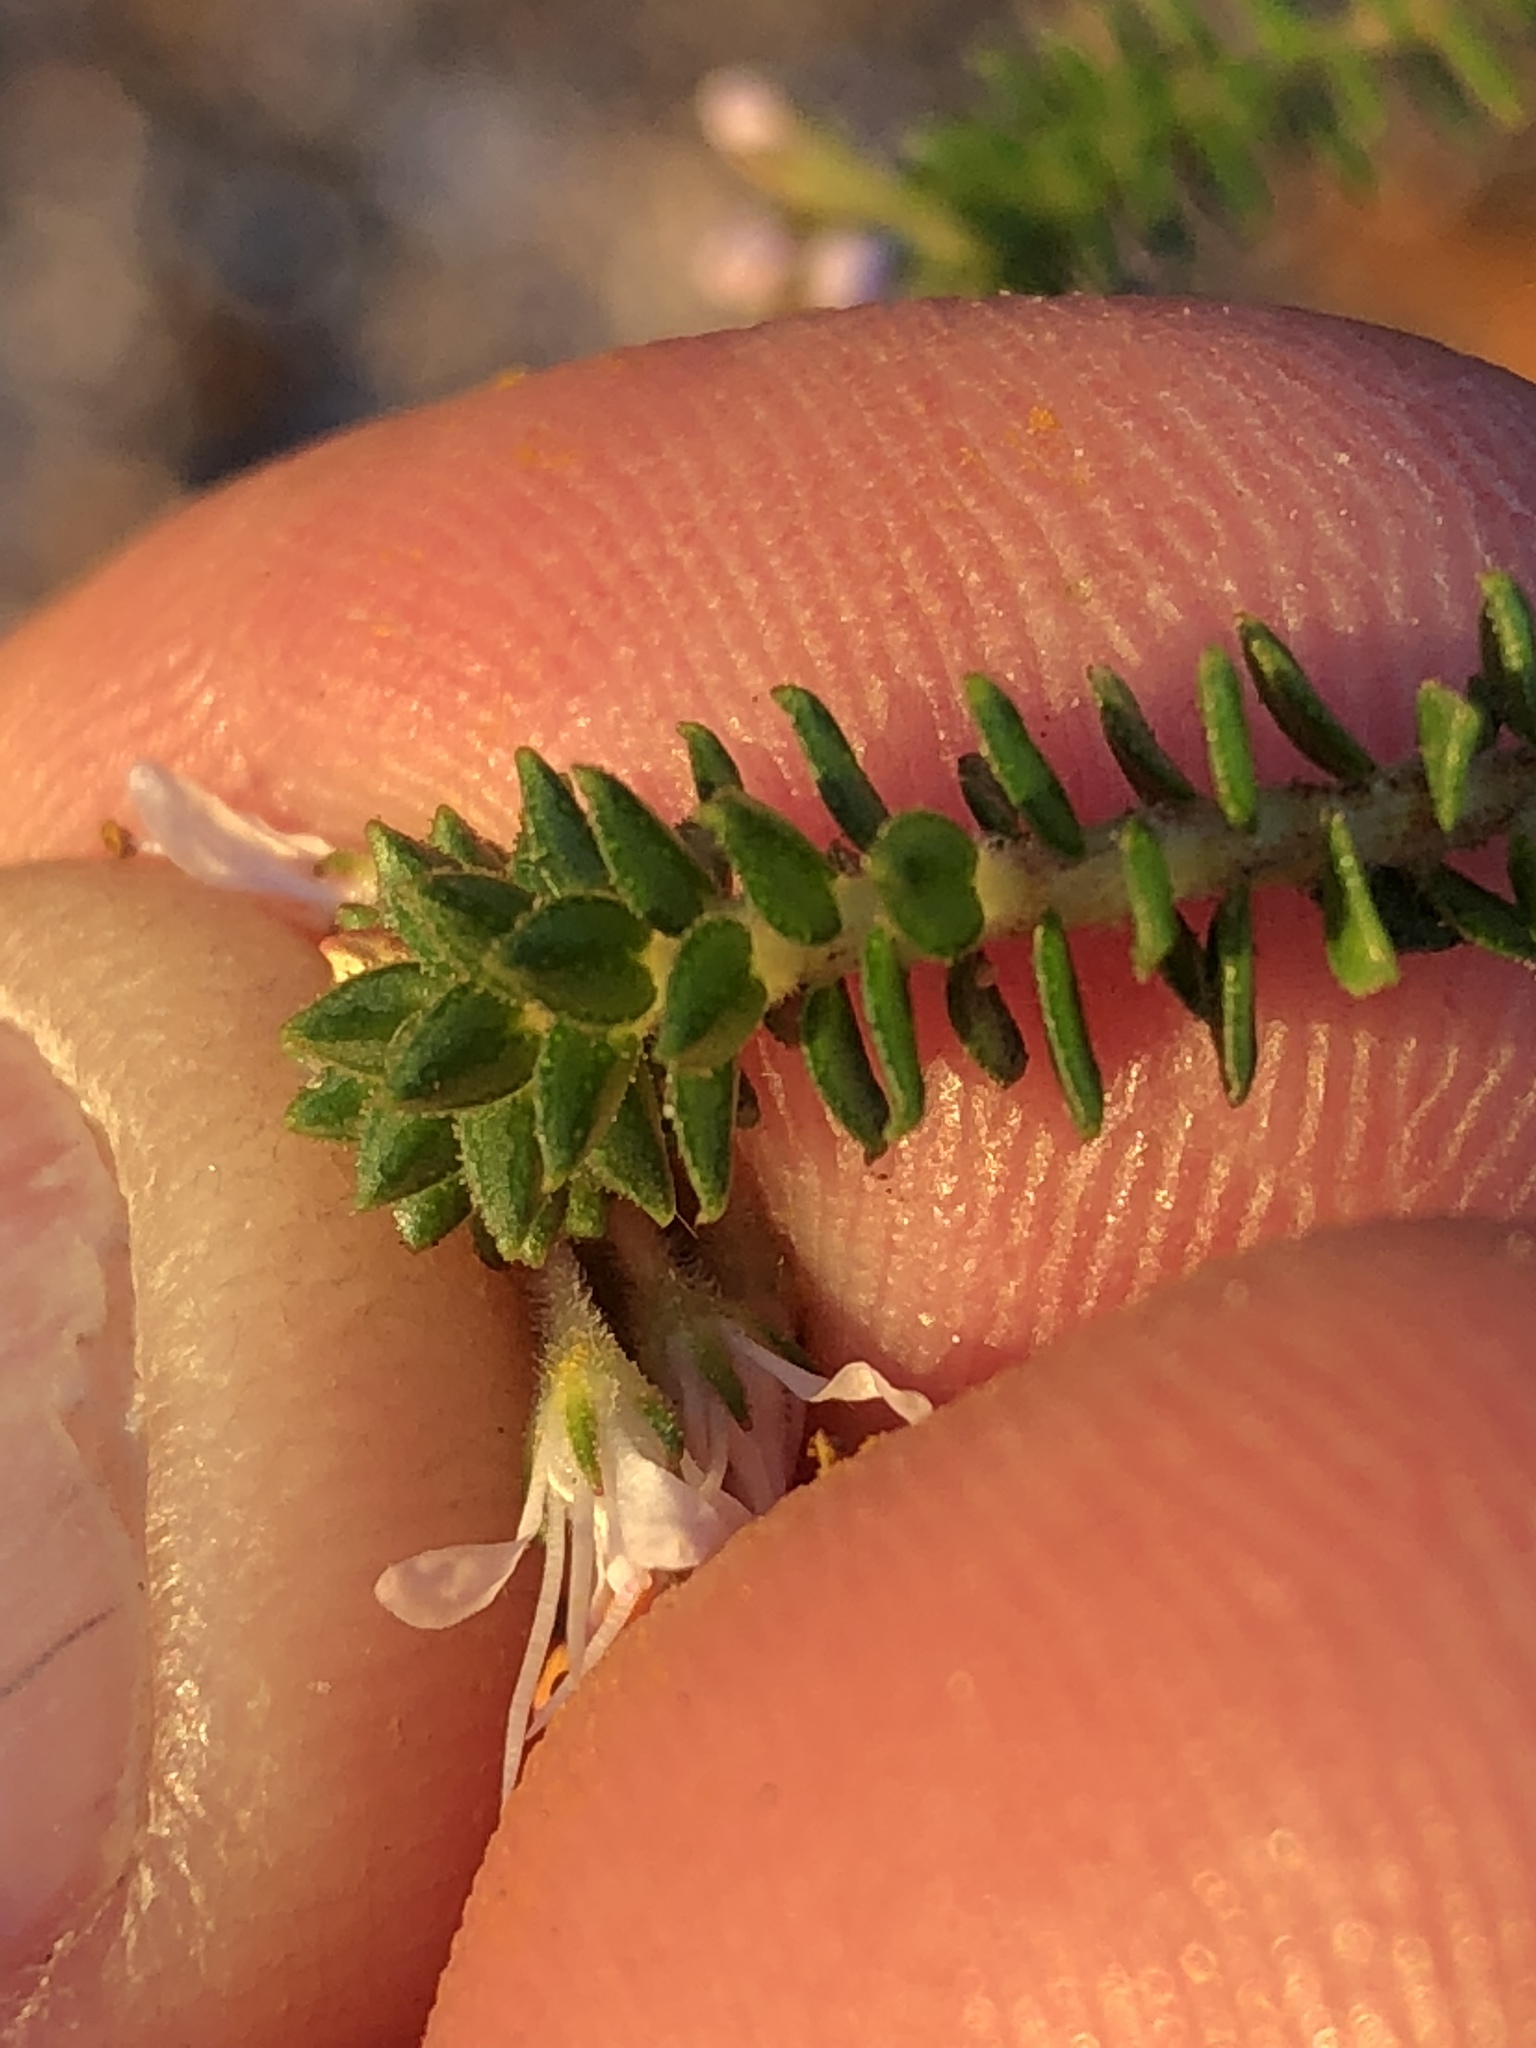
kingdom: Plantae
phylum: Tracheophyta
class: Magnoliopsida
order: Sapindales
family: Rutaceae
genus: Agathosma
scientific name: Agathosma muirii
